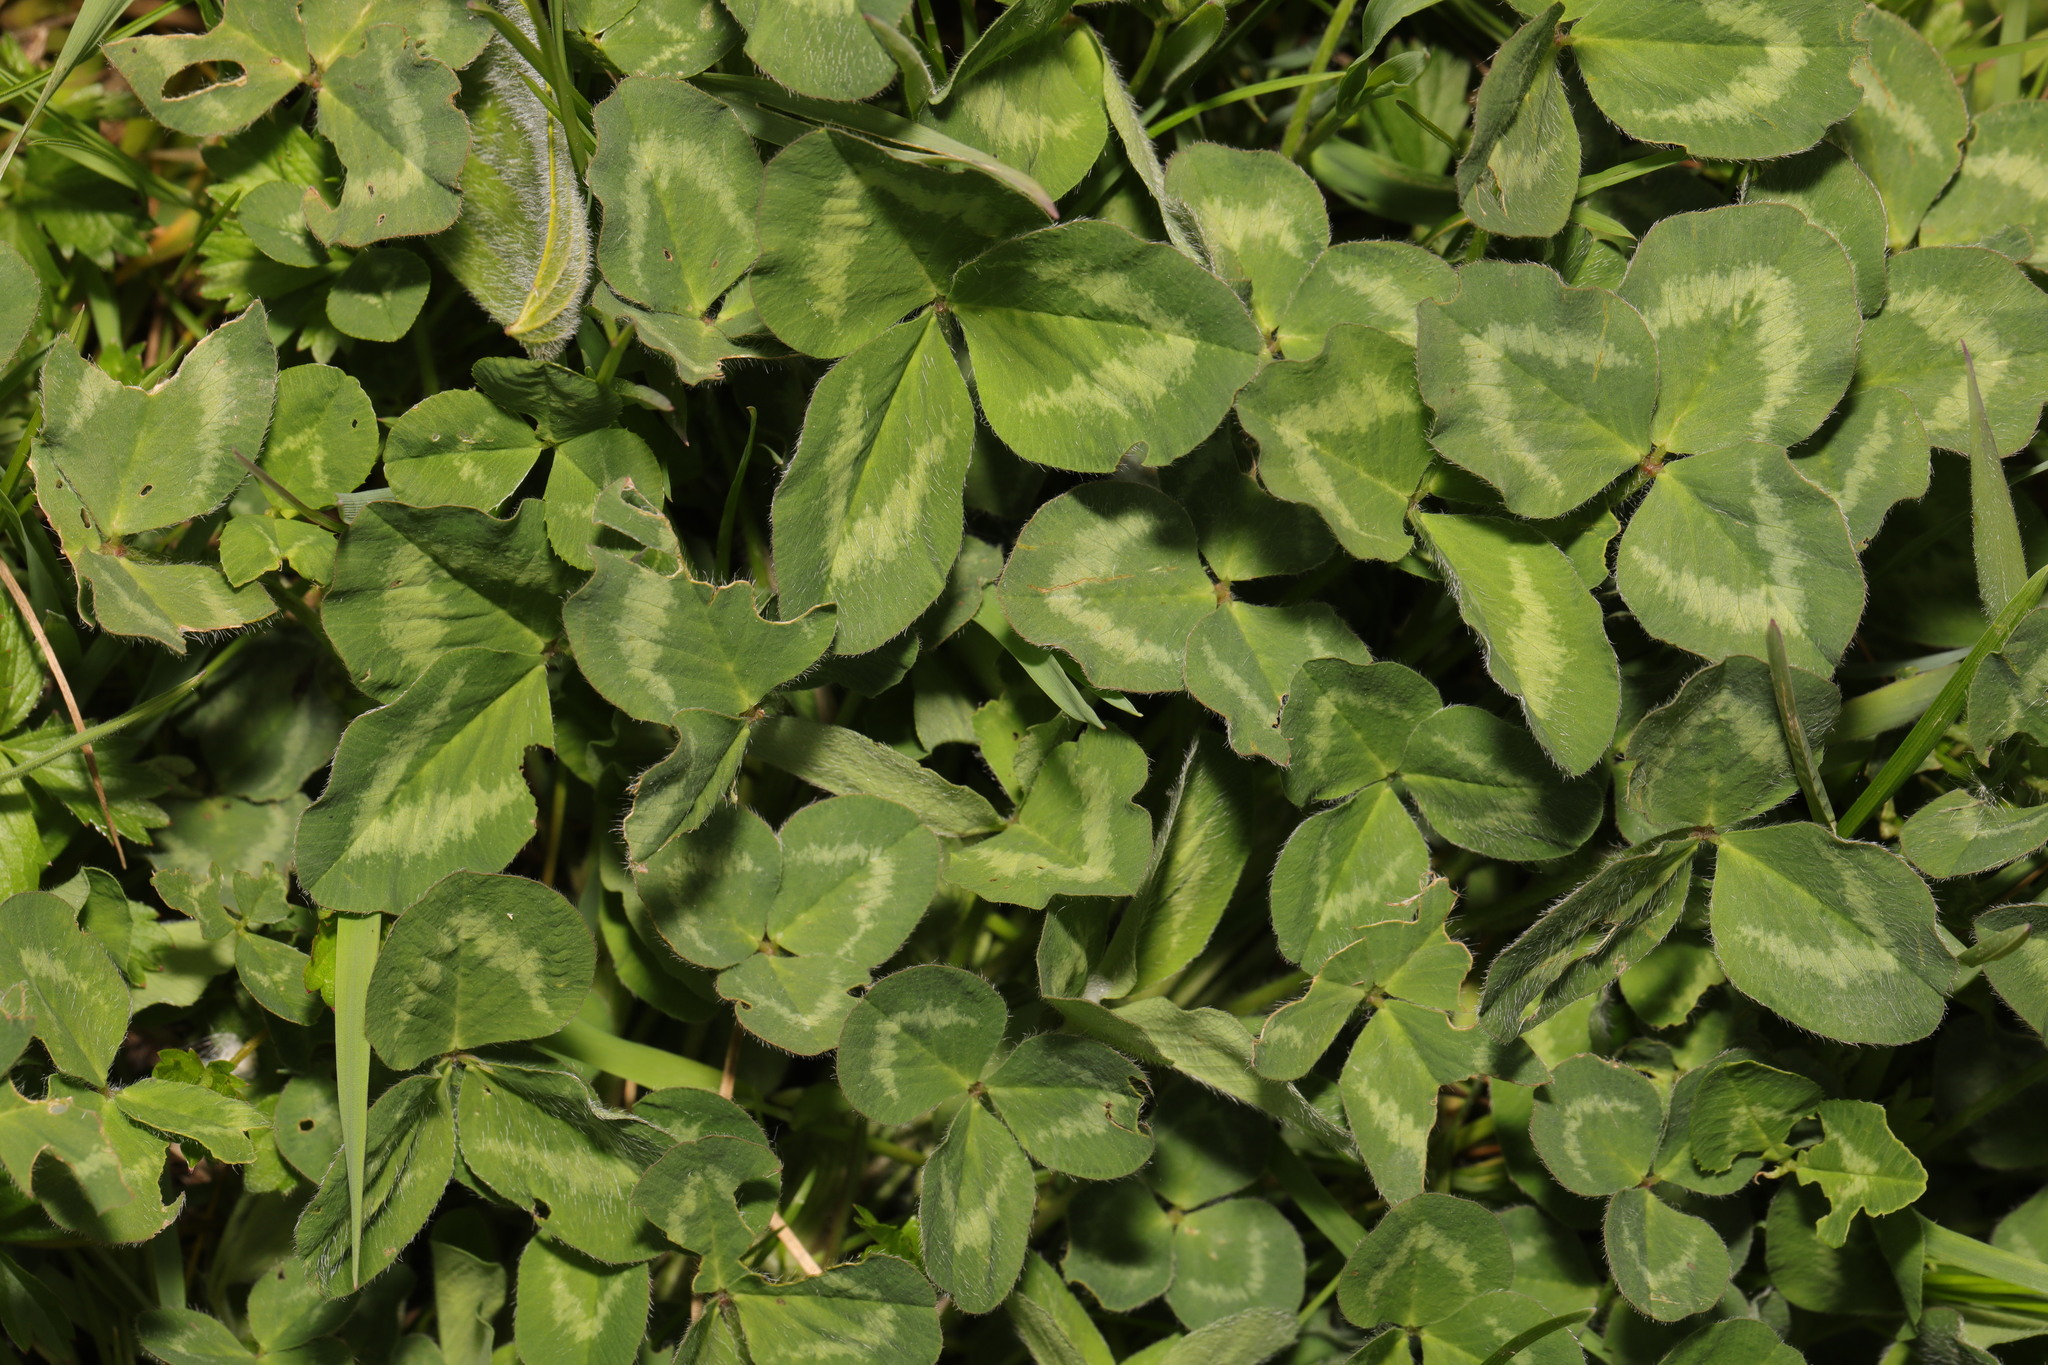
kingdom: Plantae
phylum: Tracheophyta
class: Magnoliopsida
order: Fabales
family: Fabaceae
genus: Trifolium
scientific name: Trifolium repens
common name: White clover
